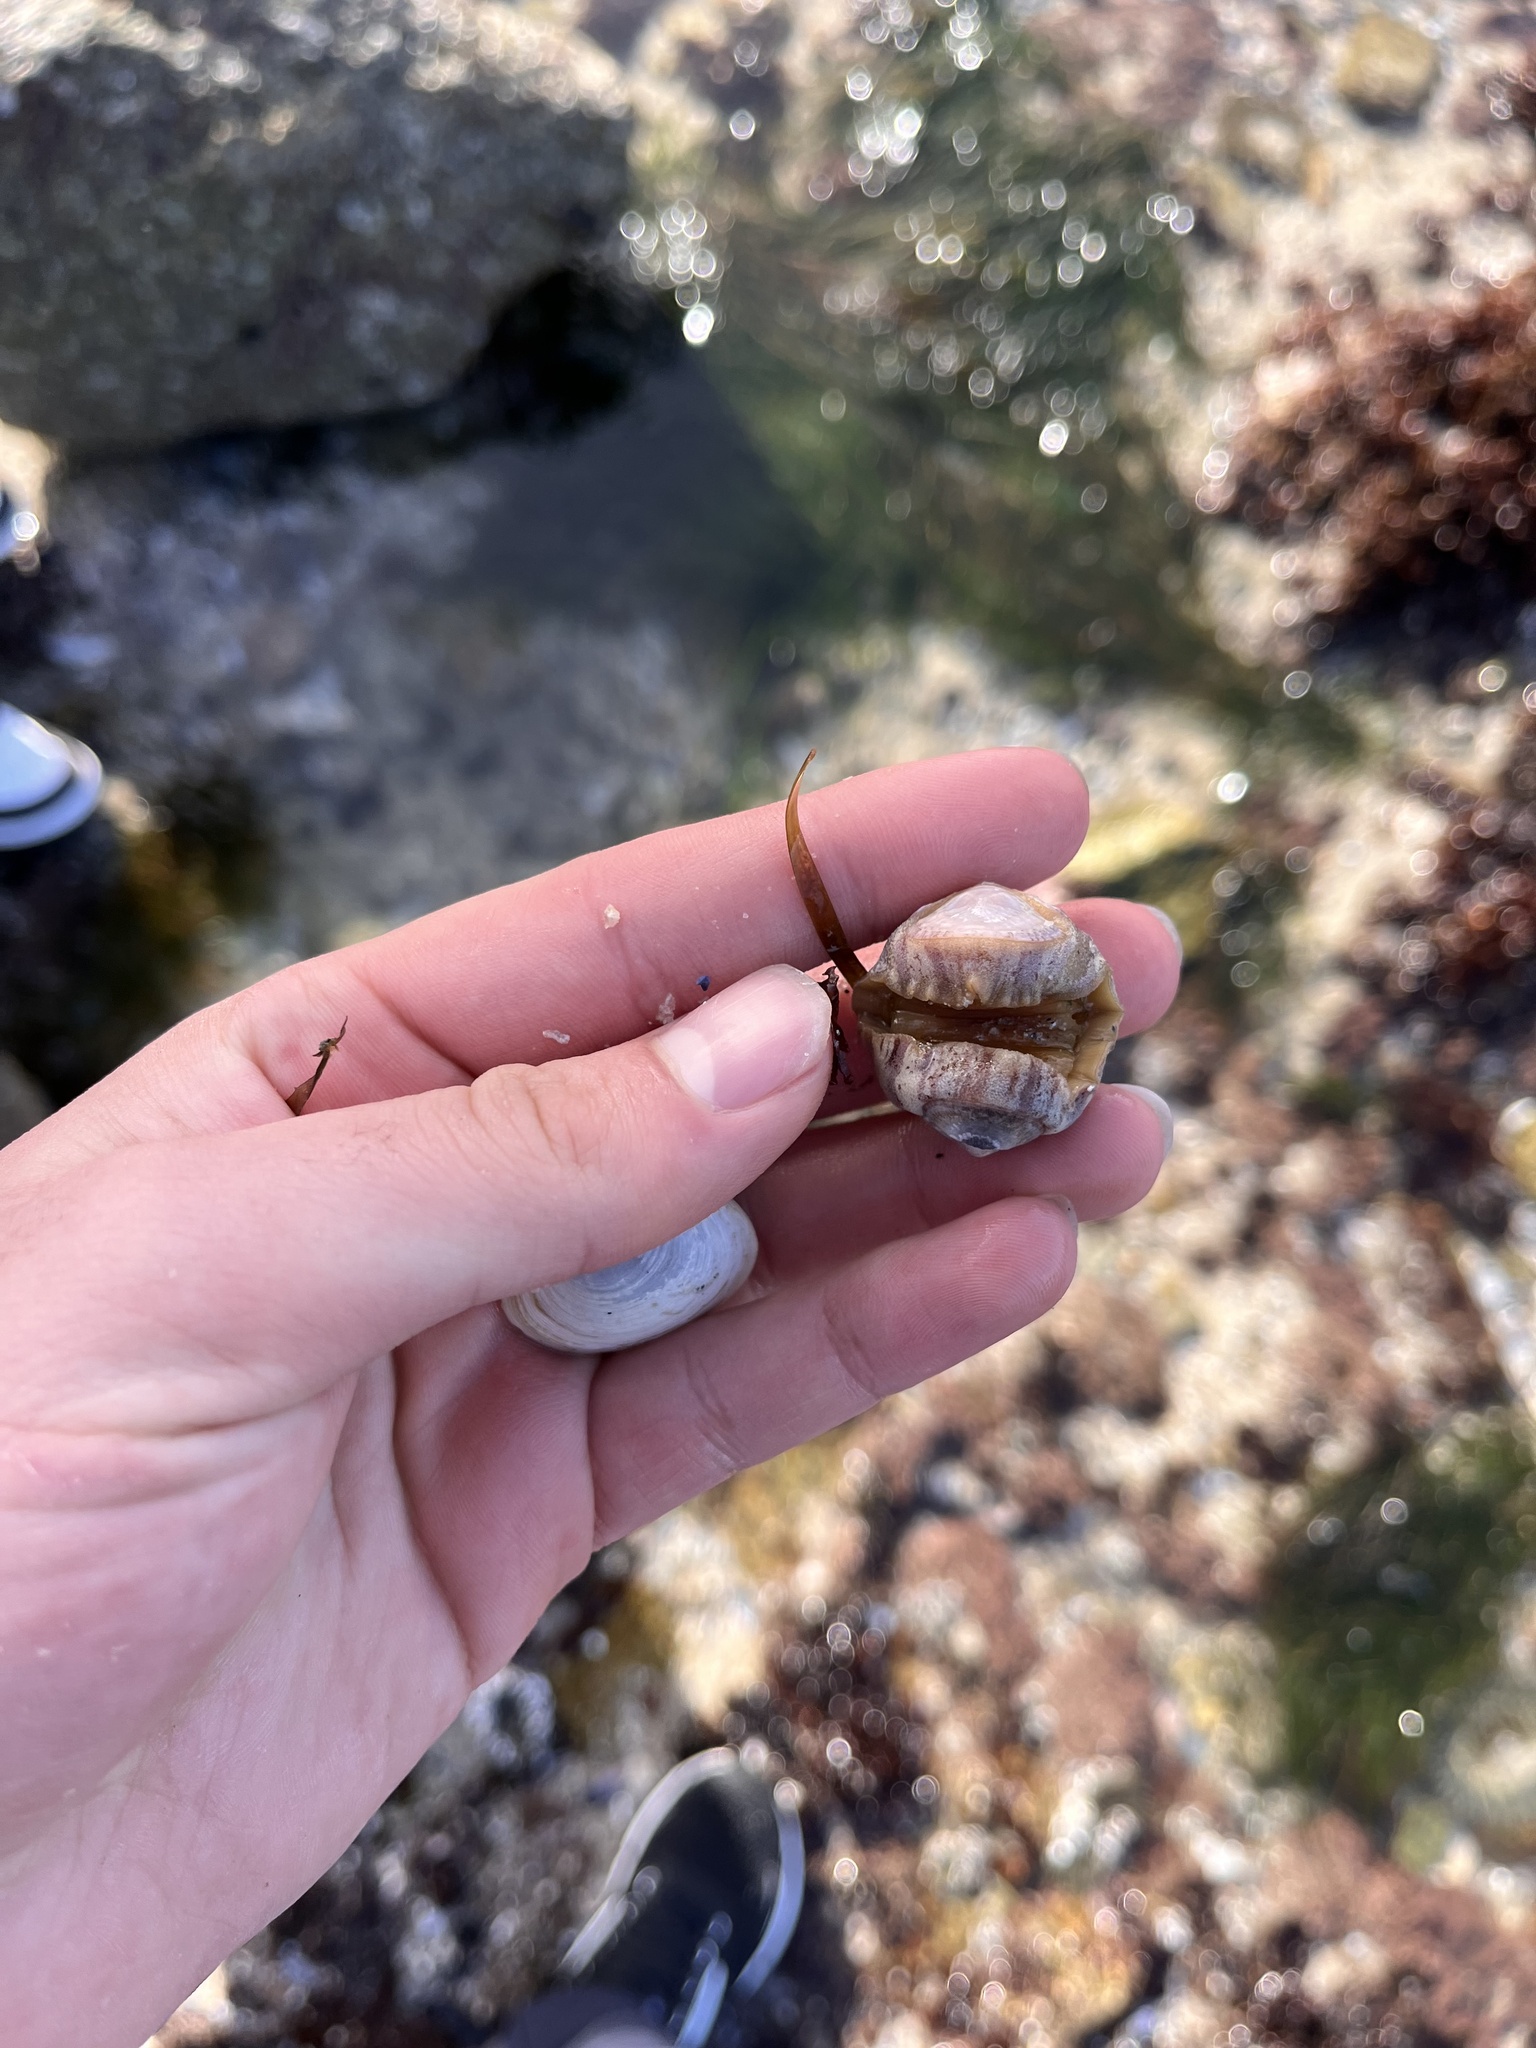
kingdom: Animalia
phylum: Mollusca
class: Polyplacophora
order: Chitonida
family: Ischnochitonidae
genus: Stenoplax
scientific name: Stenoplax heathiana
